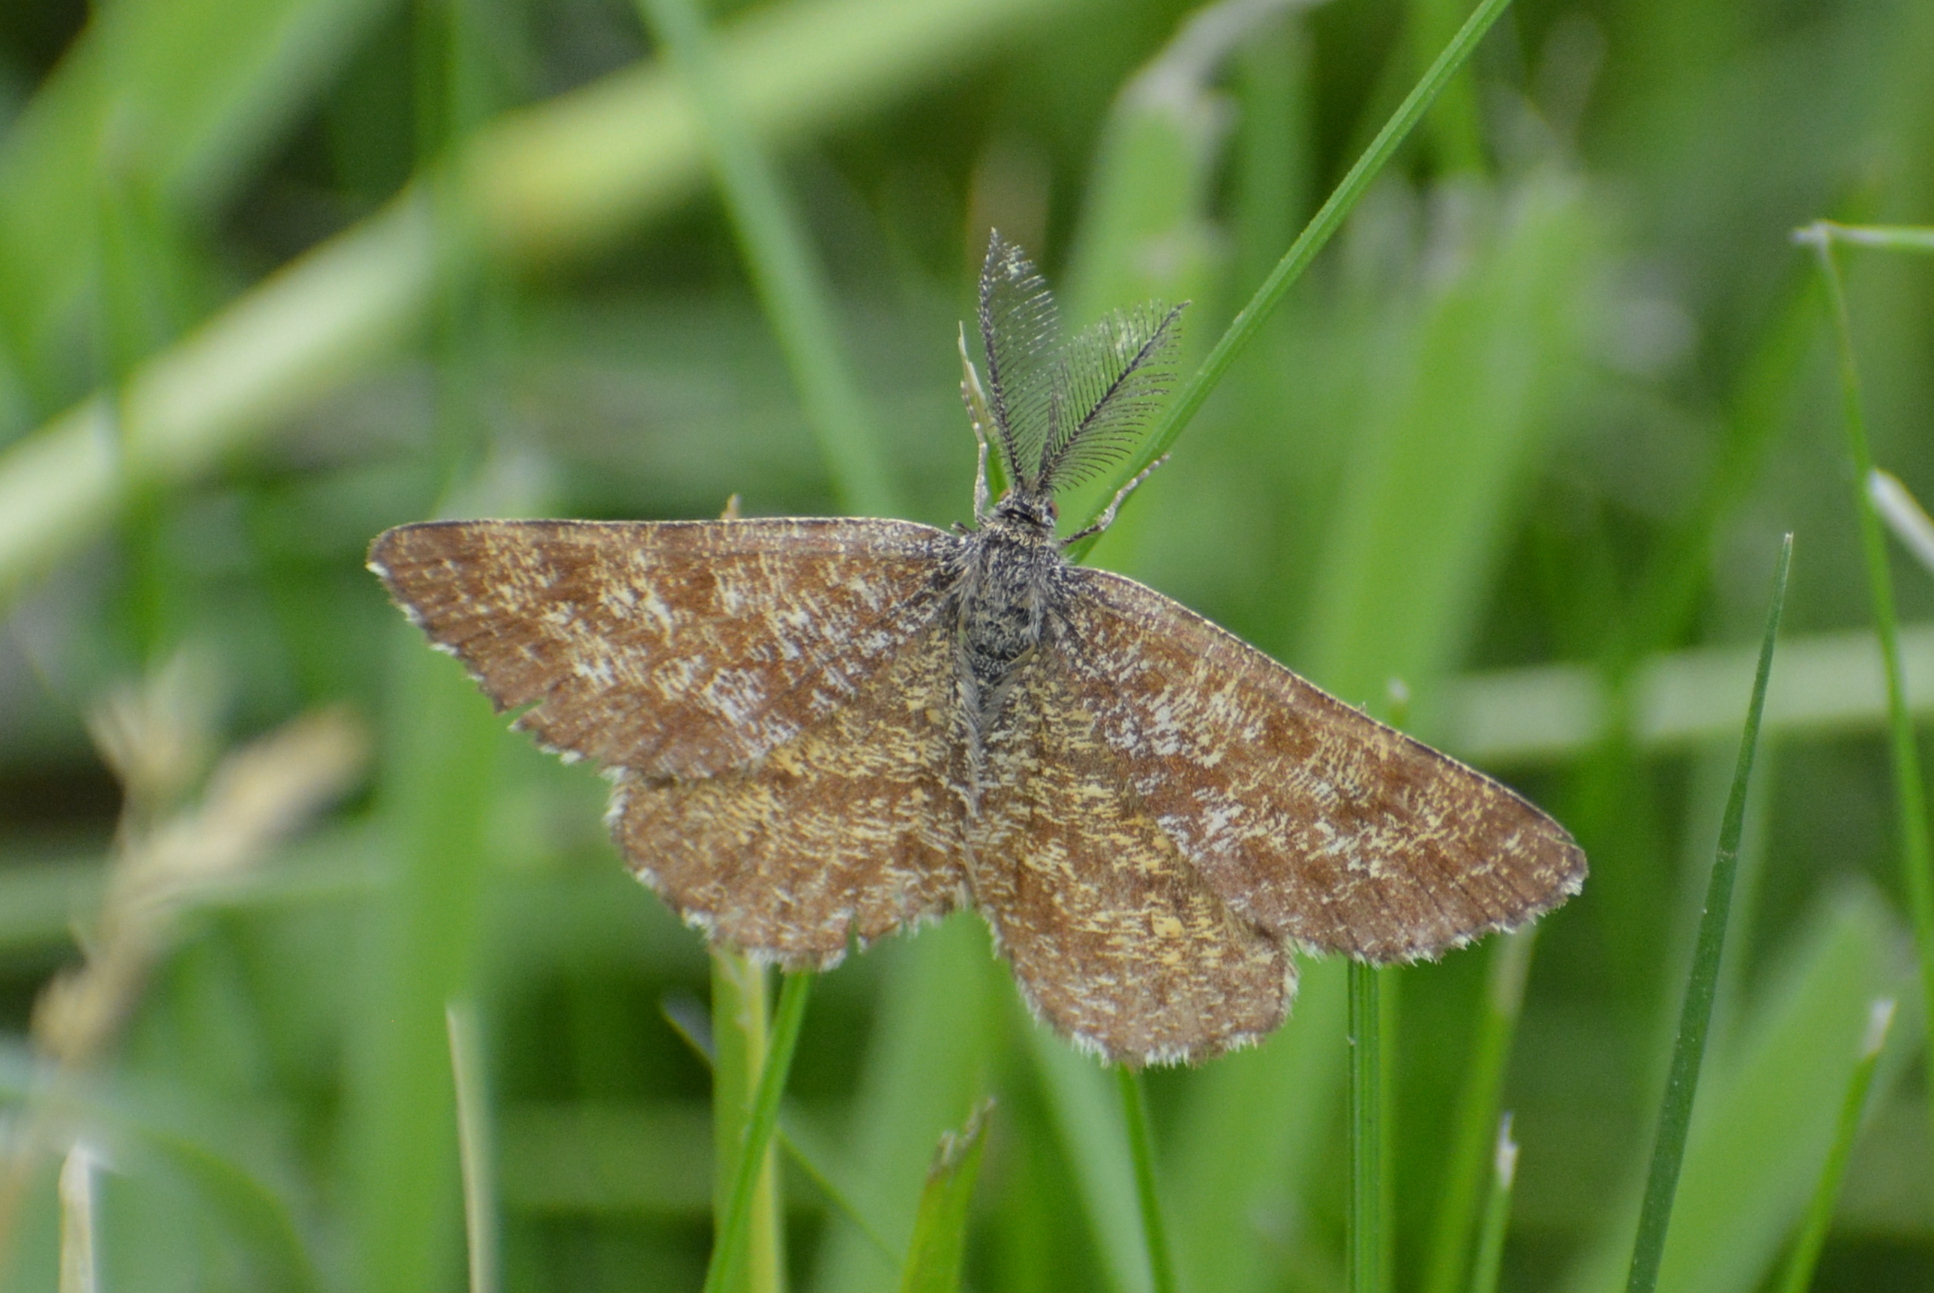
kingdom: Animalia
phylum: Arthropoda
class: Insecta
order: Lepidoptera
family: Geometridae
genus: Ematurga
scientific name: Ematurga atomaria
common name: Common heath
